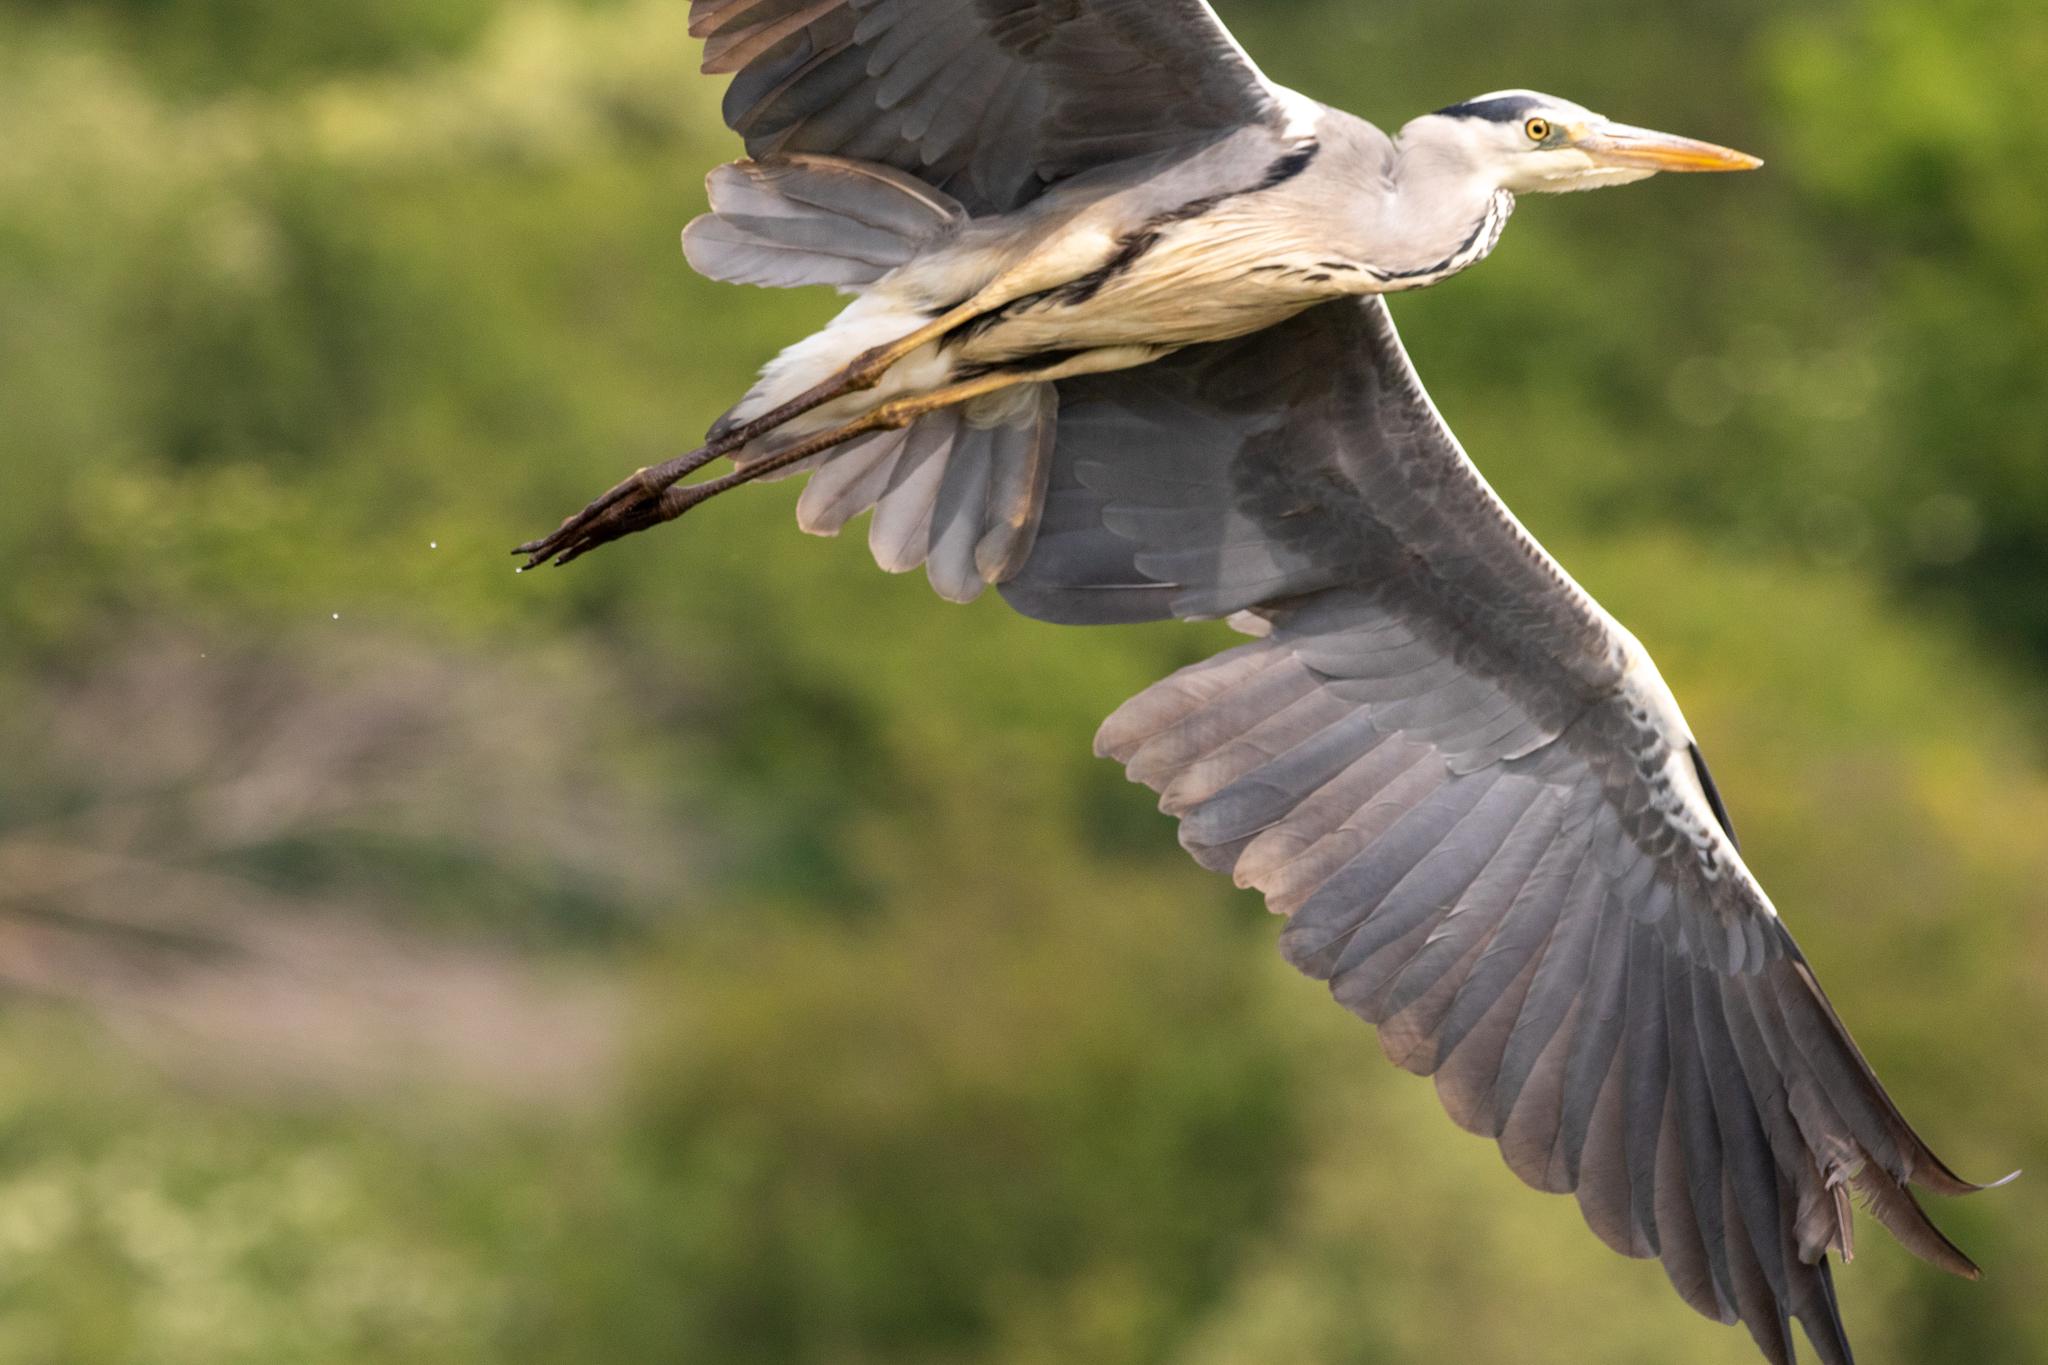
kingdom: Animalia
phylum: Chordata
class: Aves
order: Pelecaniformes
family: Ardeidae
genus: Ardea
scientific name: Ardea cinerea
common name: Grey heron
